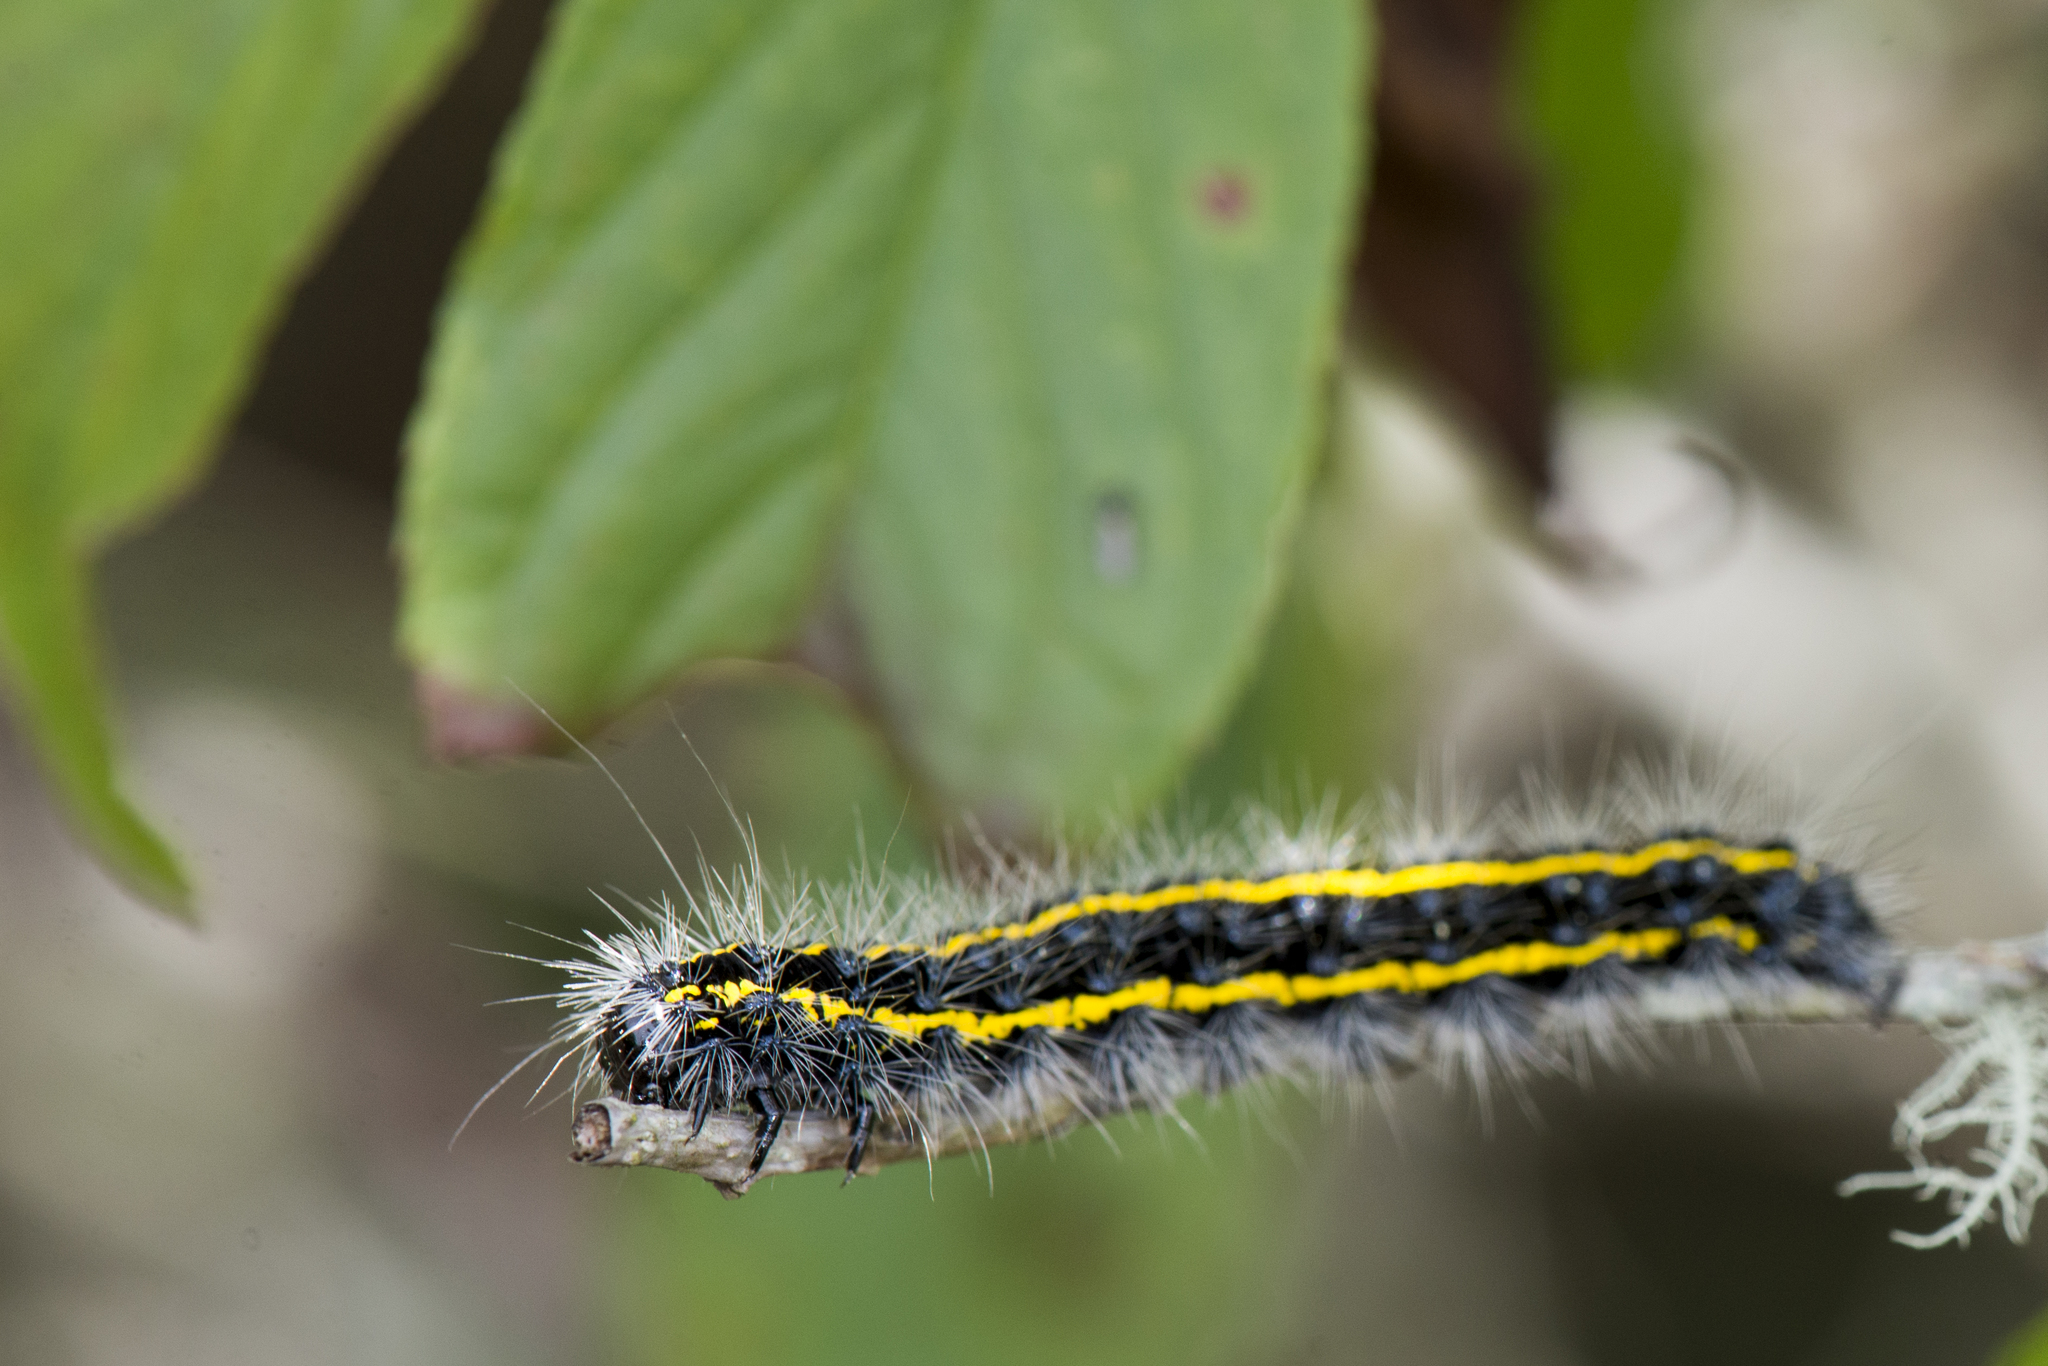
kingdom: Animalia
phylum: Arthropoda
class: Insecta
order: Lepidoptera
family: Erebidae
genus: Taicallimorpha
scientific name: Taicallimorpha albipuncta
